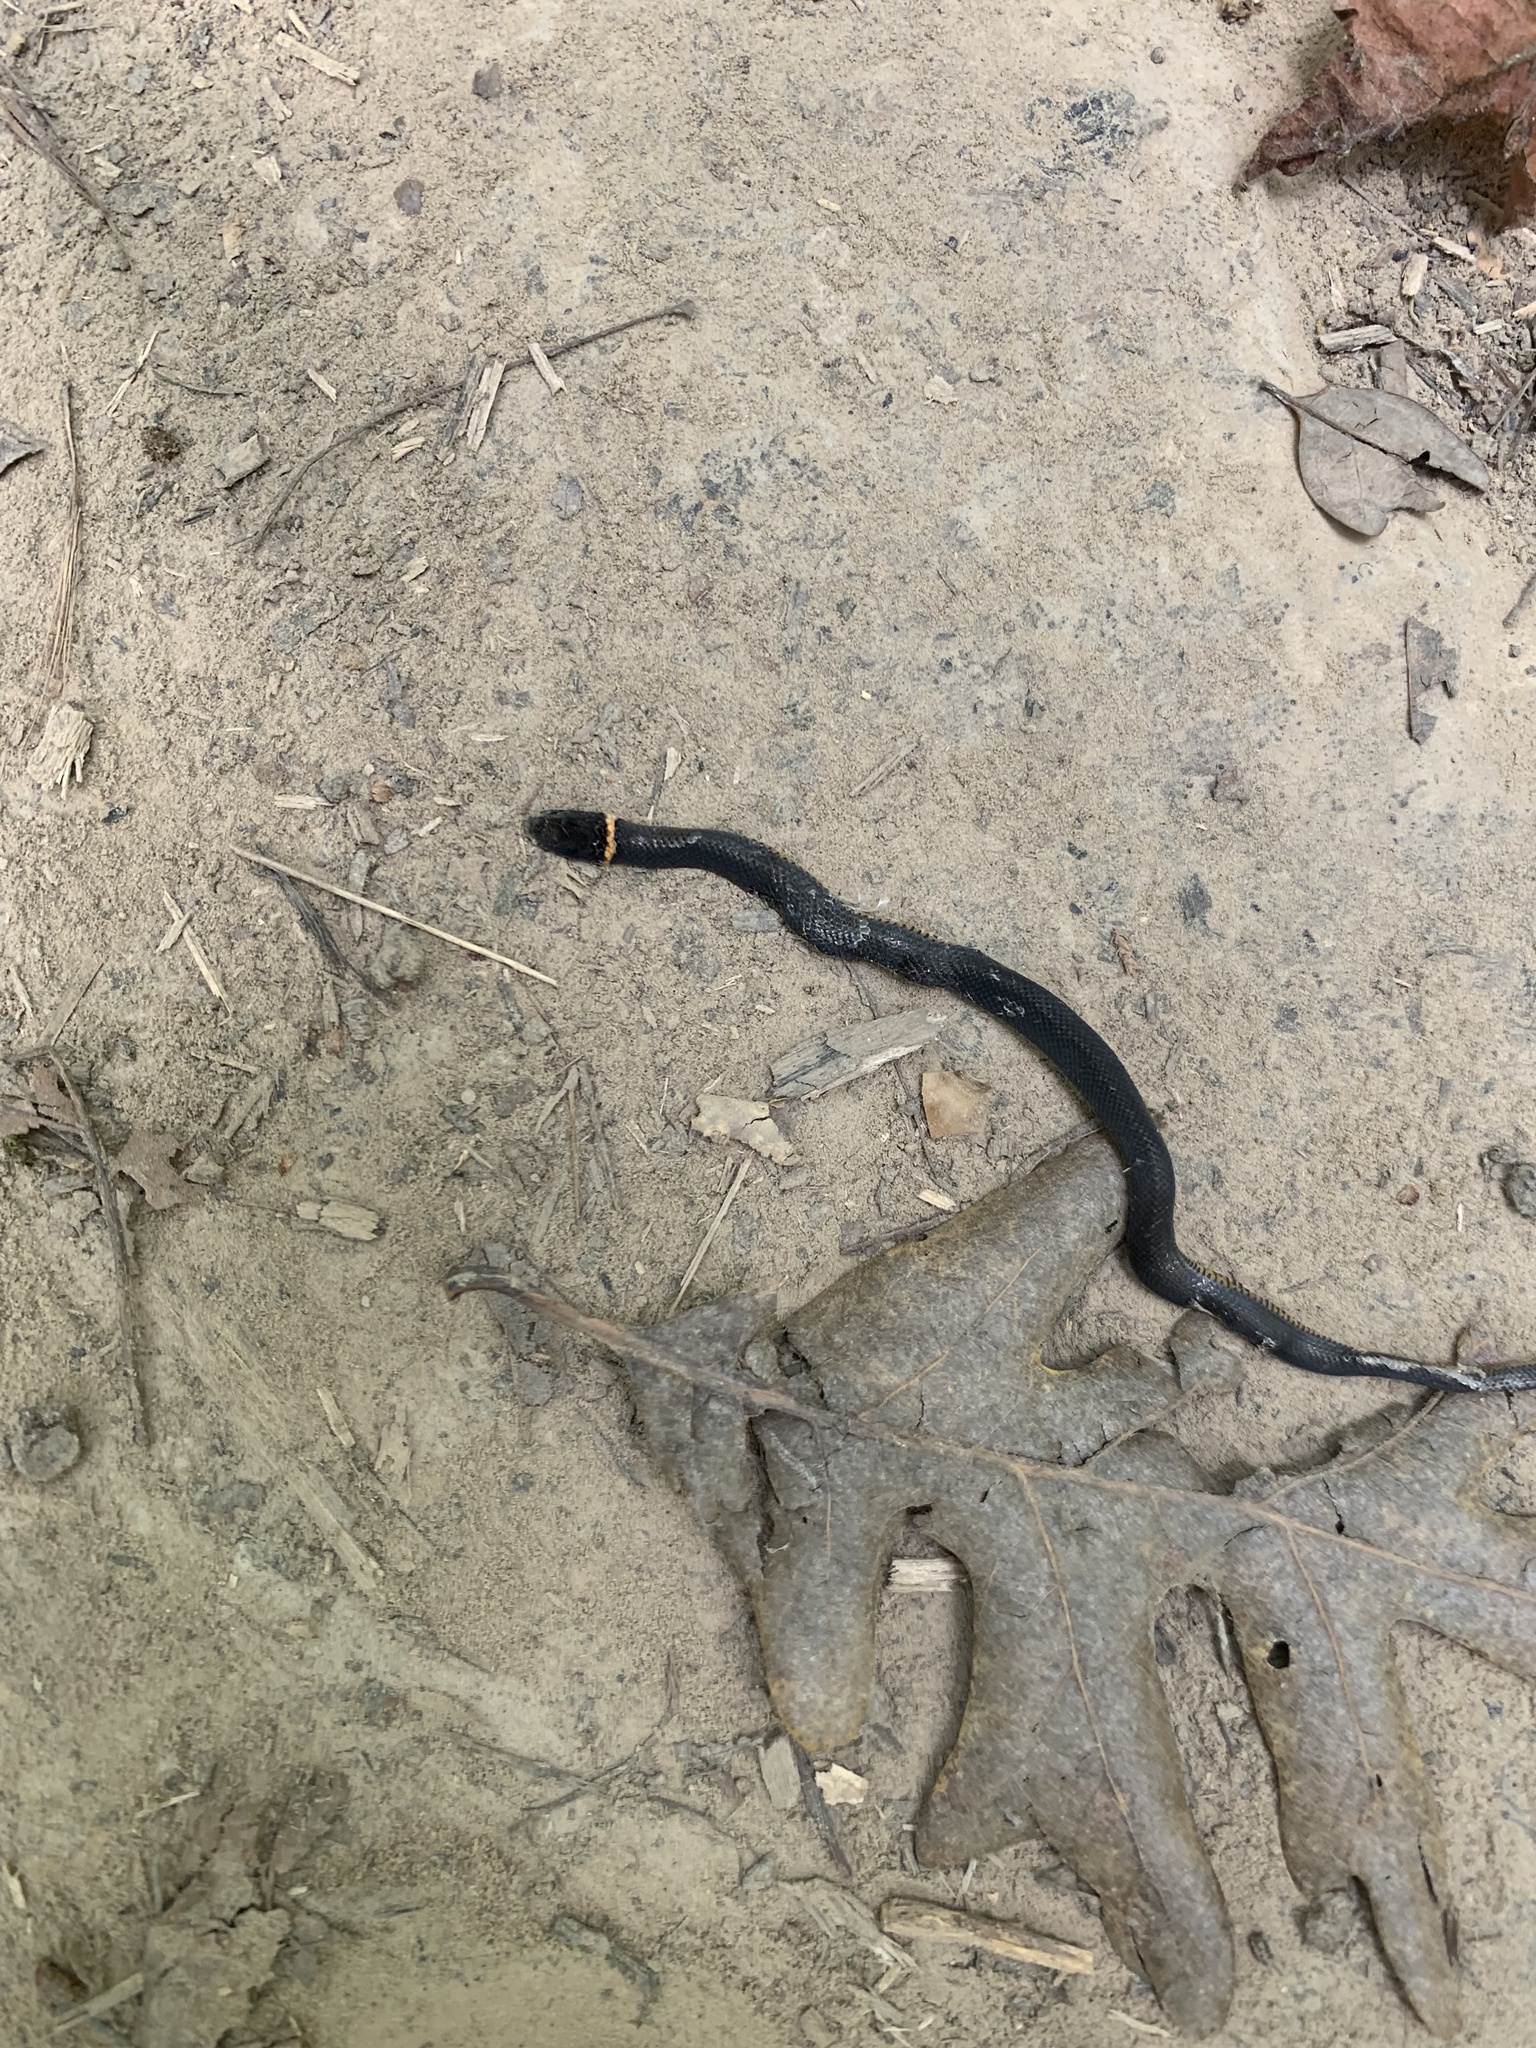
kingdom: Animalia
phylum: Chordata
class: Squamata
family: Colubridae
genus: Diadophis
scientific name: Diadophis punctatus
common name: Ringneck snake
